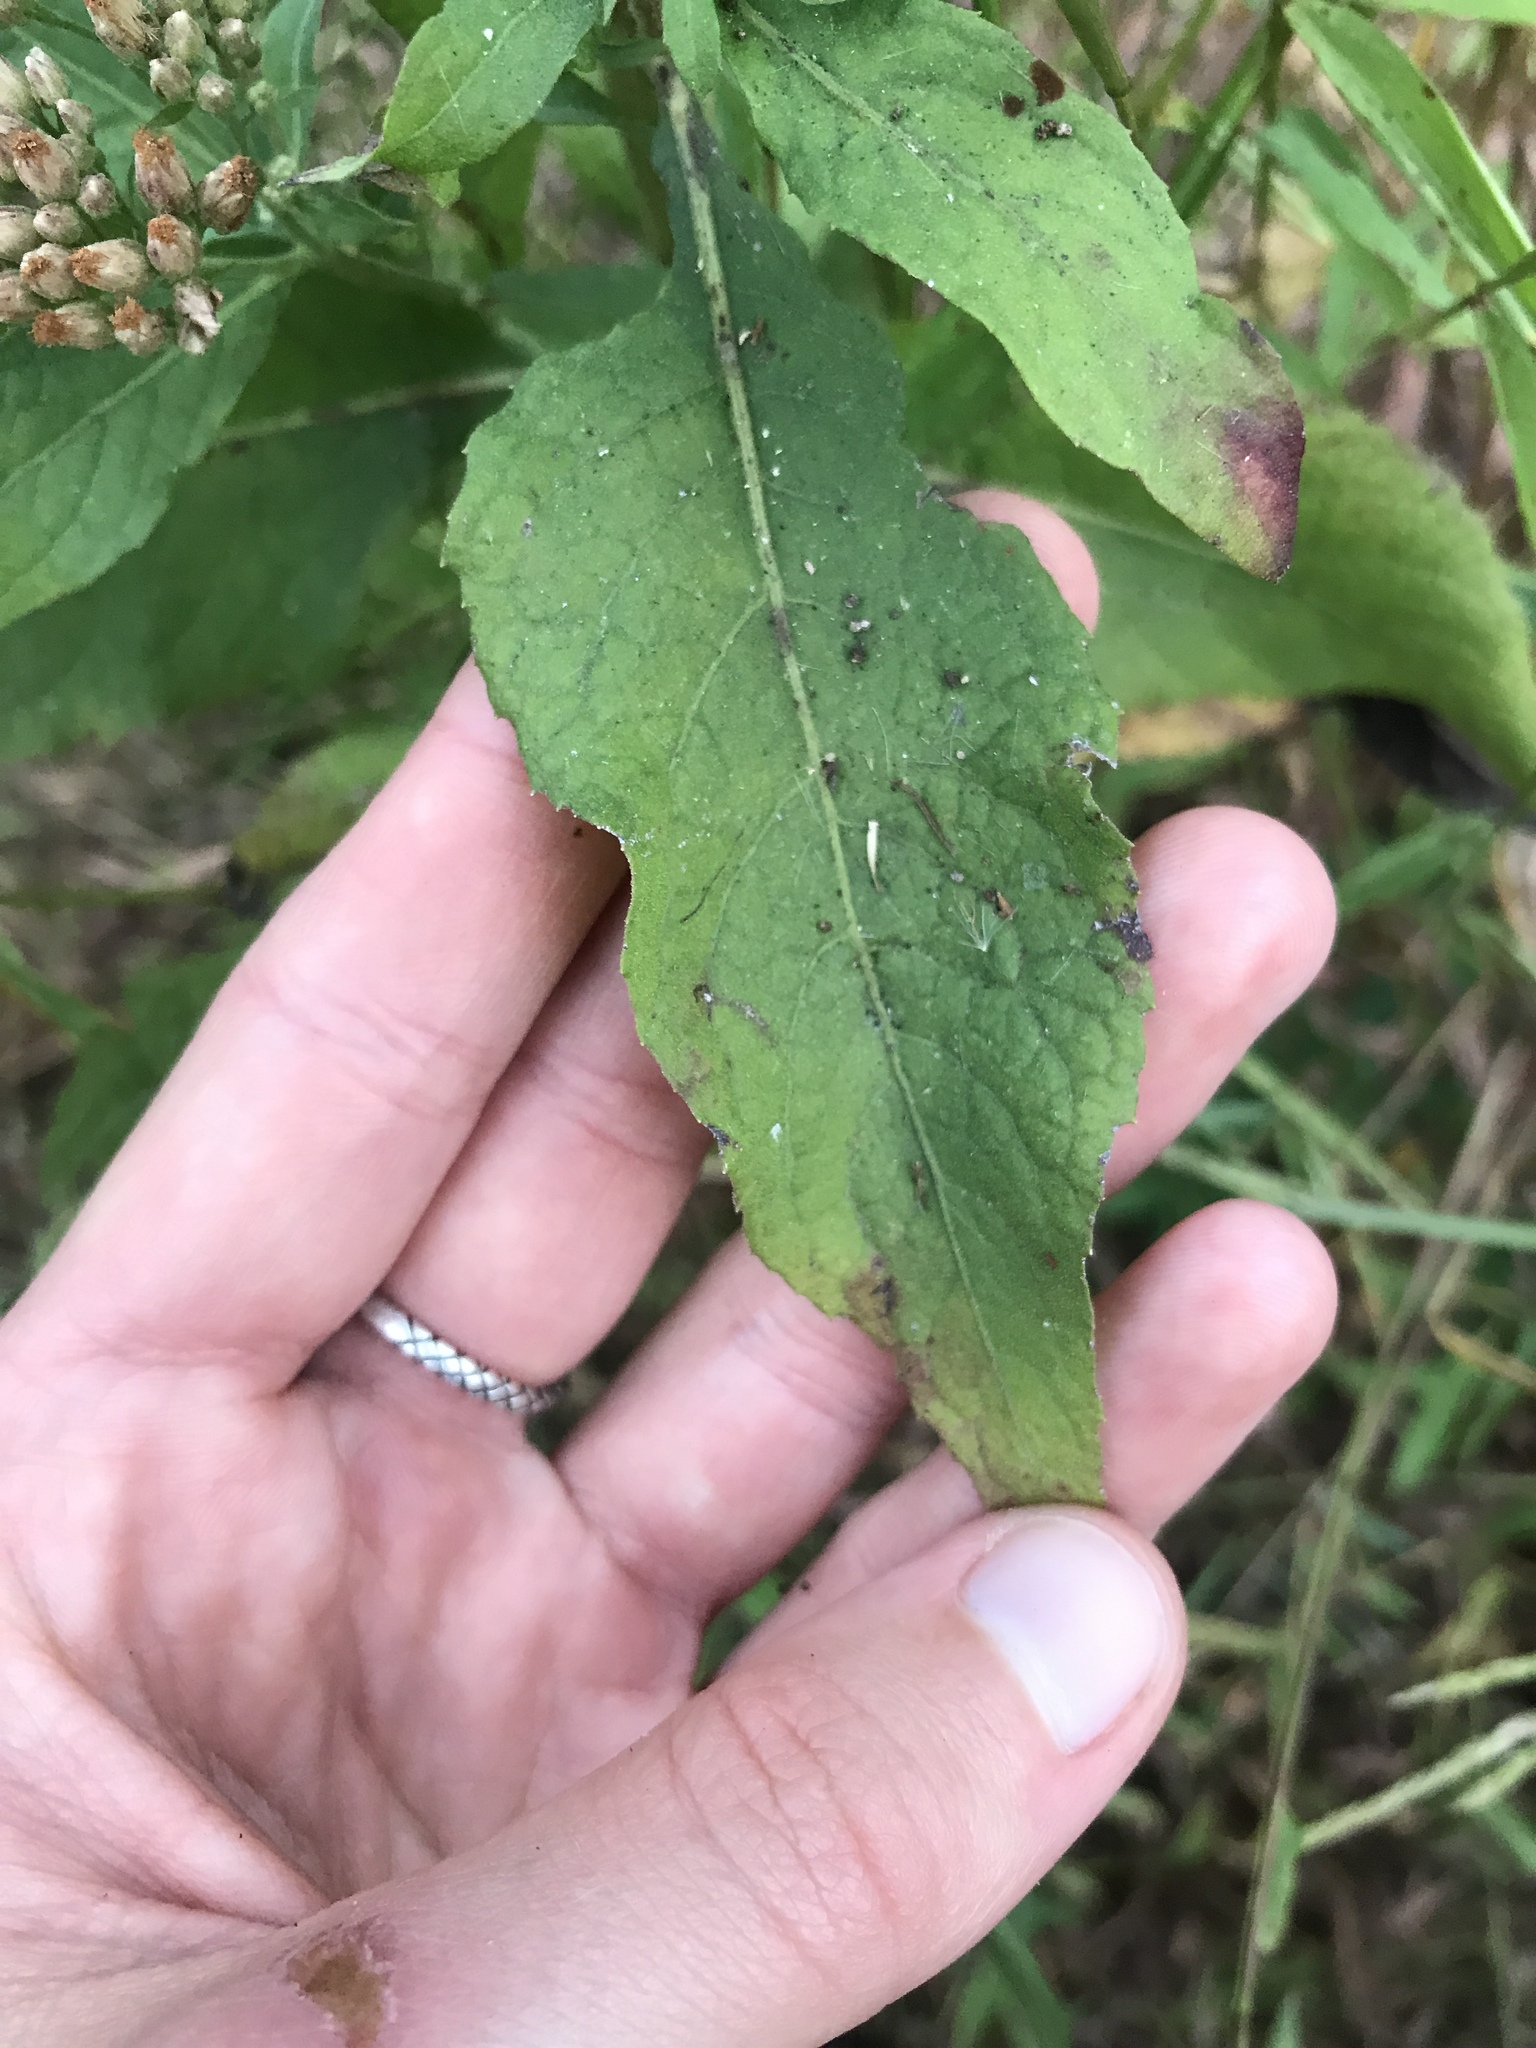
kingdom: Plantae
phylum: Tracheophyta
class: Magnoliopsida
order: Asterales
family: Asteraceae
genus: Pluchea
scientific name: Pluchea camphorata
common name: Camphor pluchea
